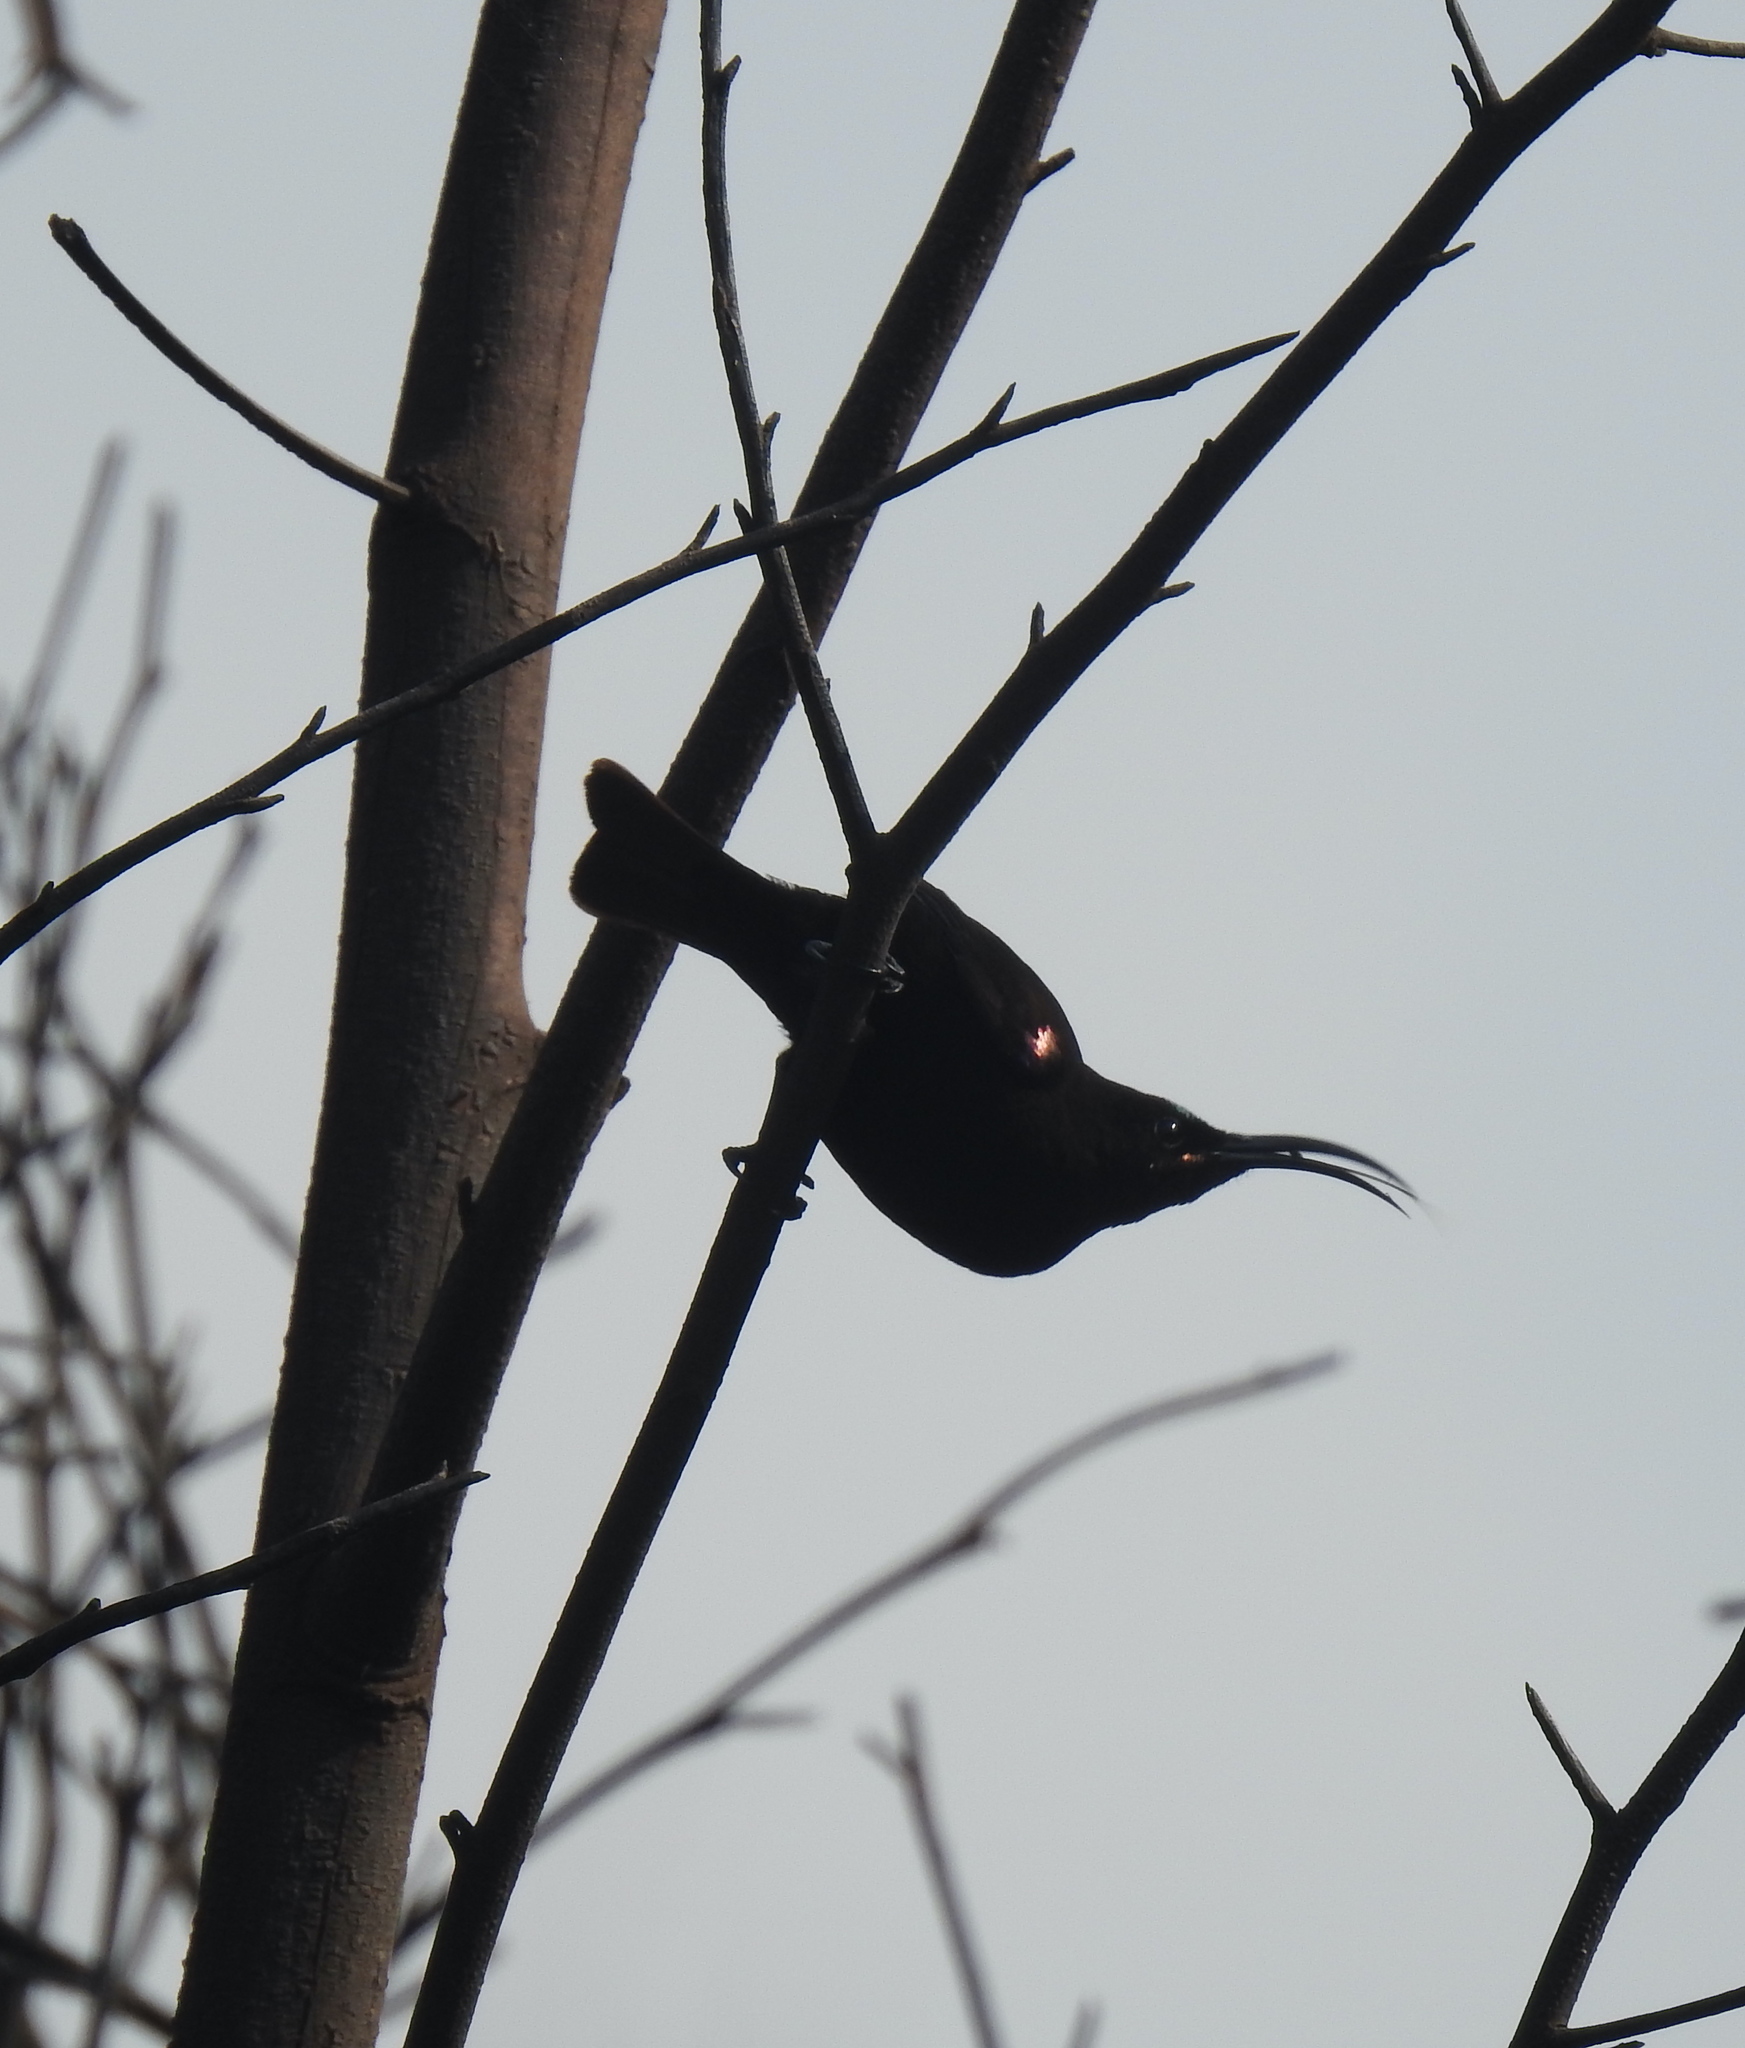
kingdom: Animalia
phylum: Chordata
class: Aves
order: Passeriformes
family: Nectariniidae
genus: Chalcomitra
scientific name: Chalcomitra amethystina
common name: Amethyst sunbird
